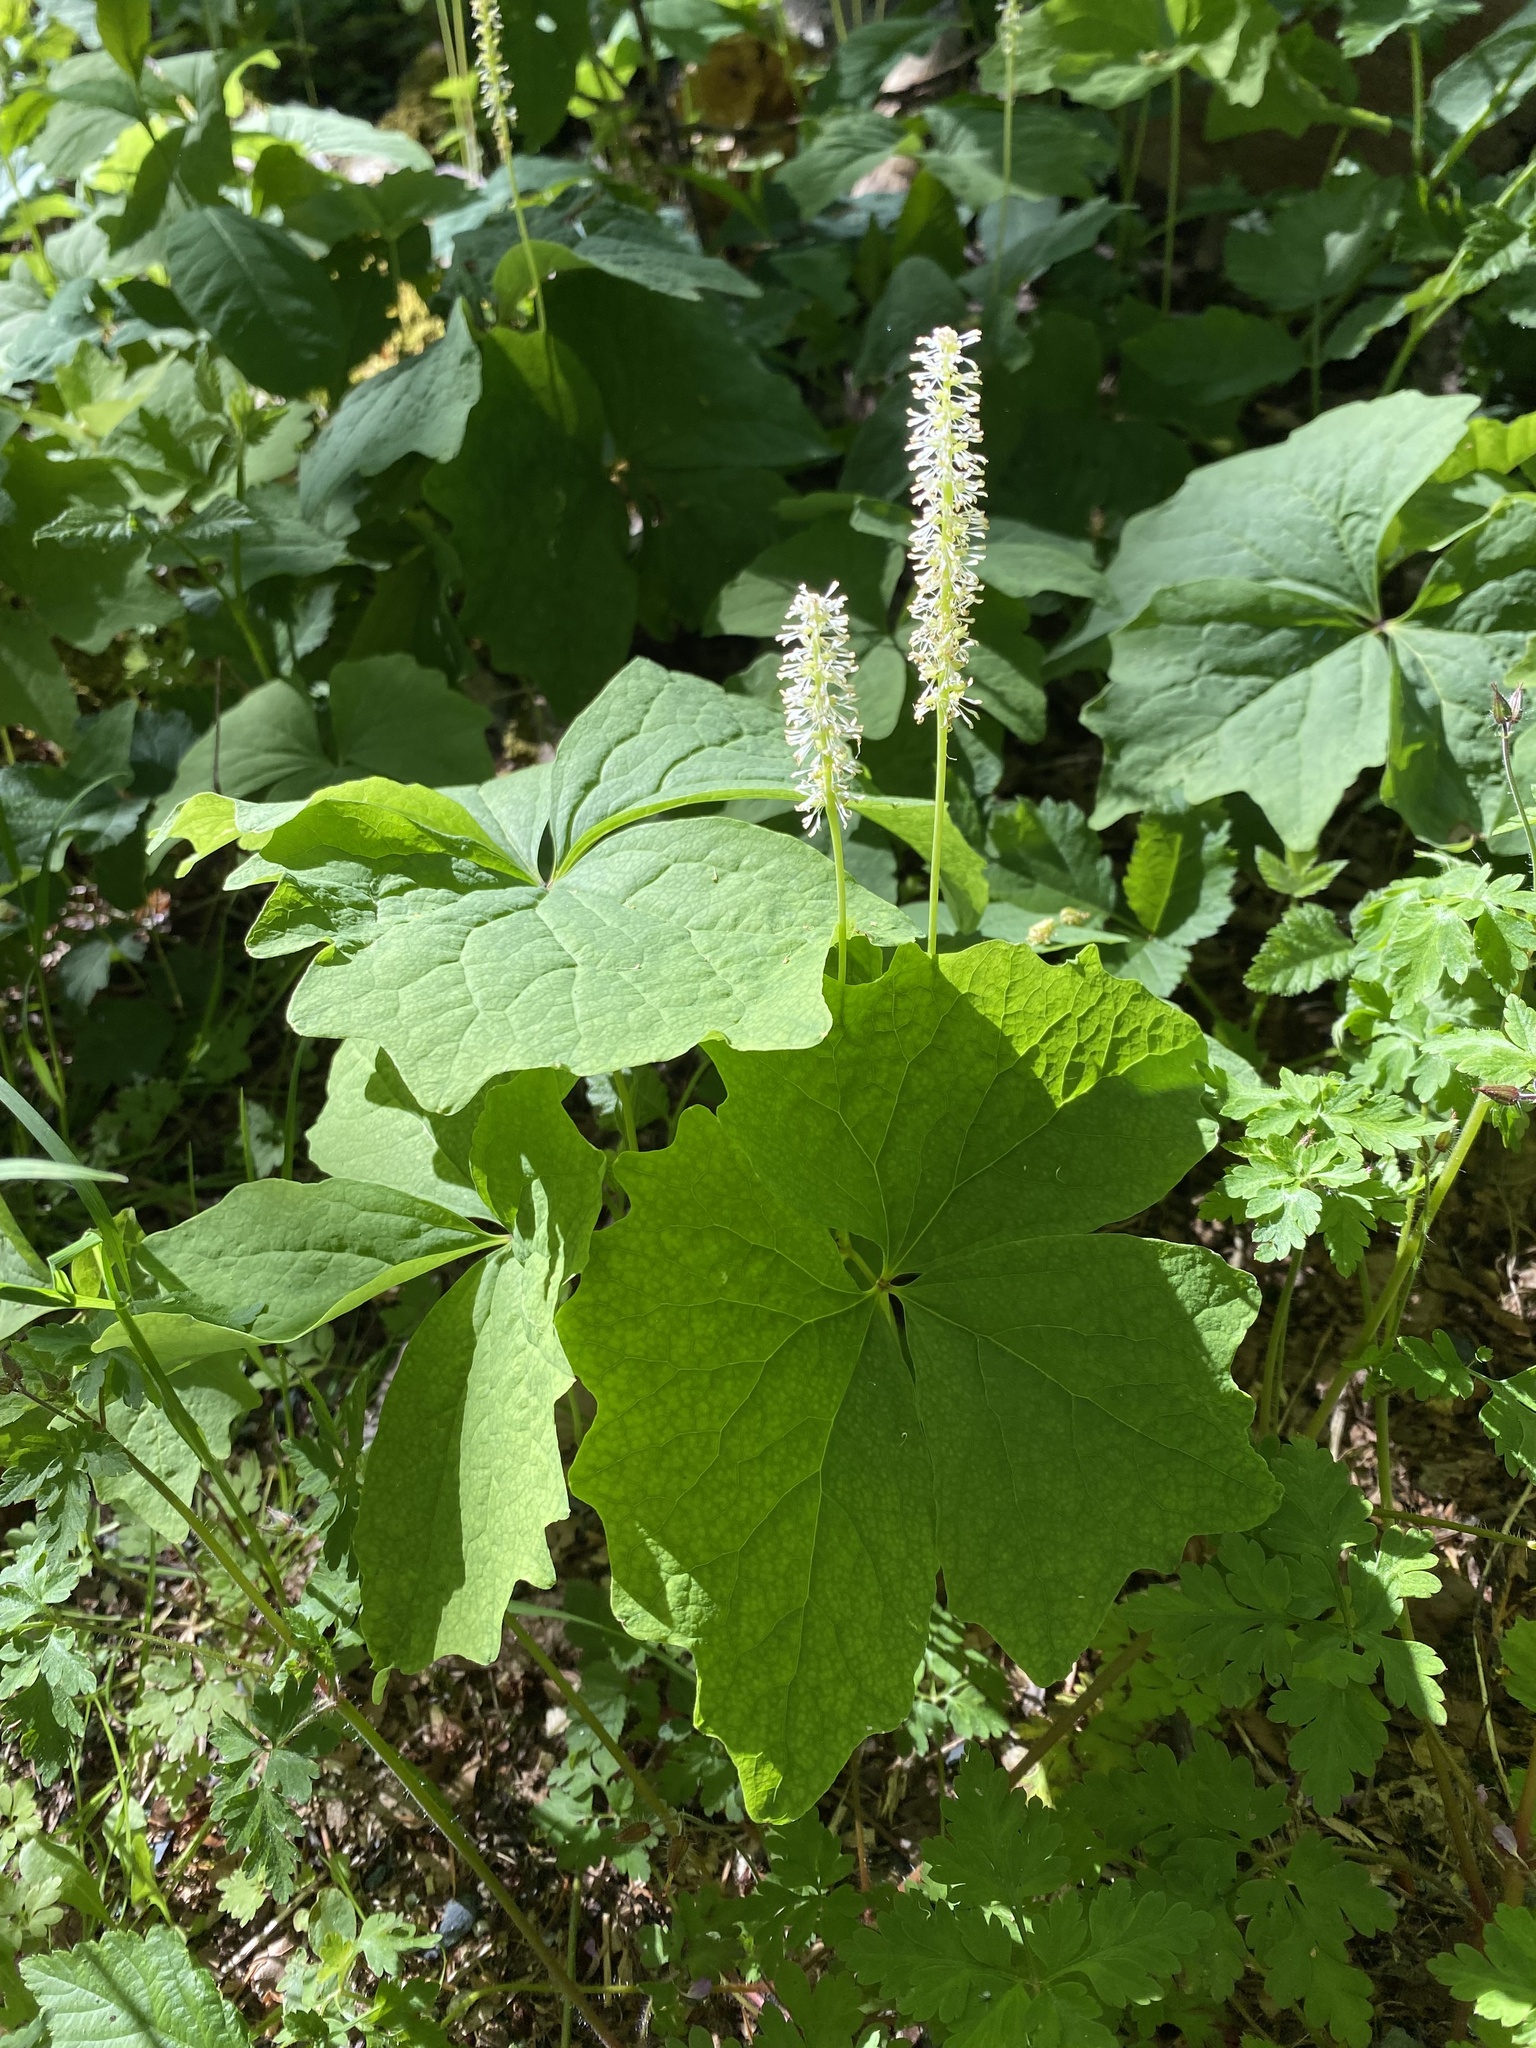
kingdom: Plantae
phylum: Tracheophyta
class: Magnoliopsida
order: Ranunculales
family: Berberidaceae
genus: Achlys
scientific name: Achlys triphylla
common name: Vanilla-leaf
